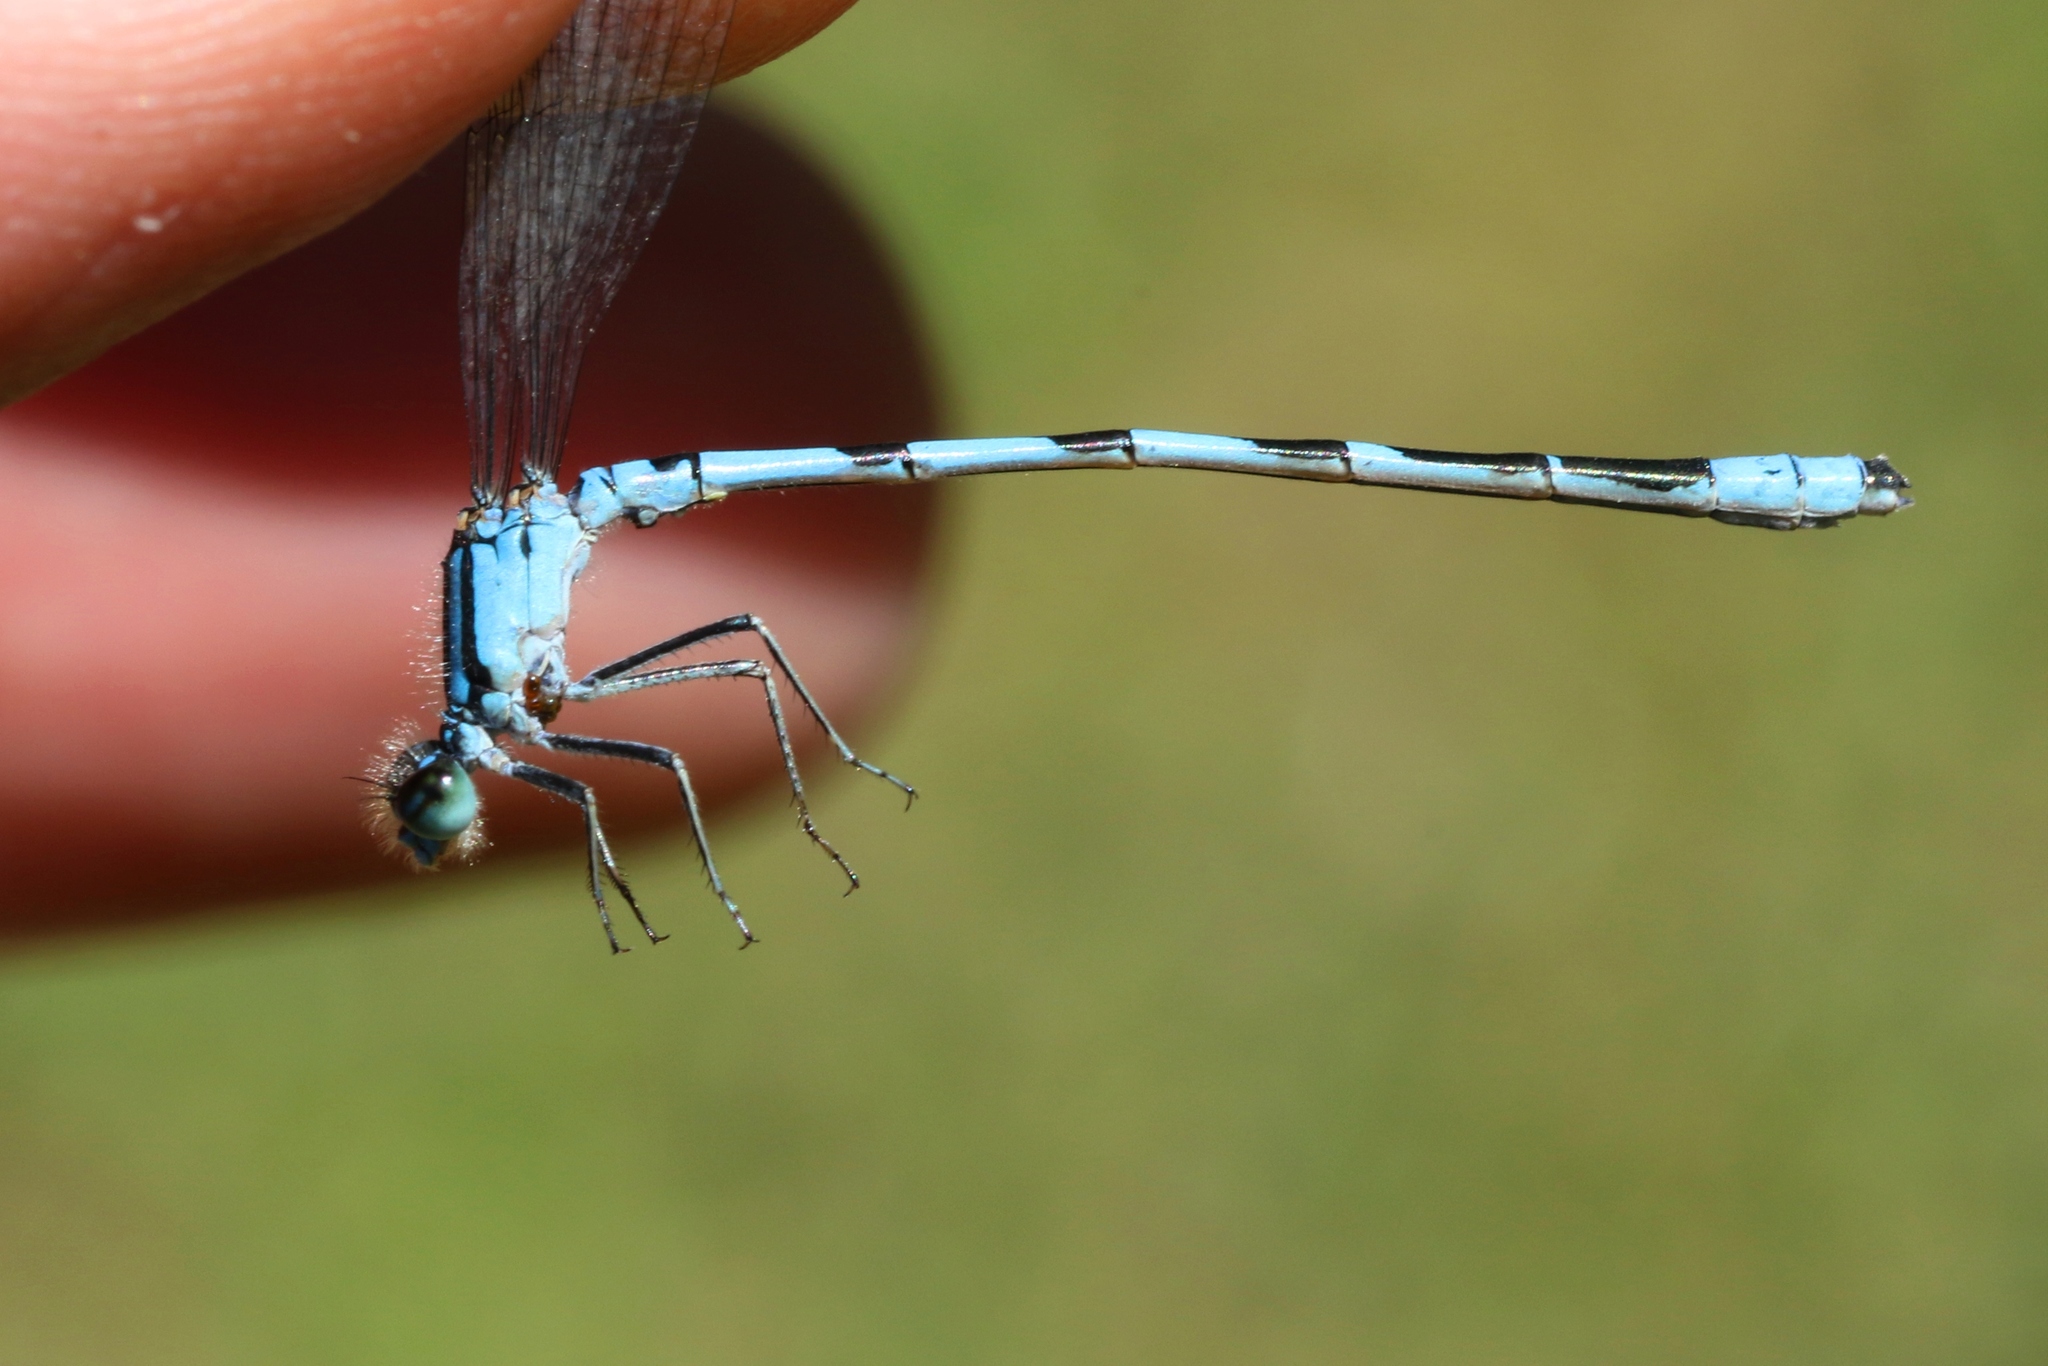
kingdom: Animalia
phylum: Arthropoda
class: Insecta
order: Odonata
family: Coenagrionidae
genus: Enallagma
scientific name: Enallagma hageni
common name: Hagen's bluet
